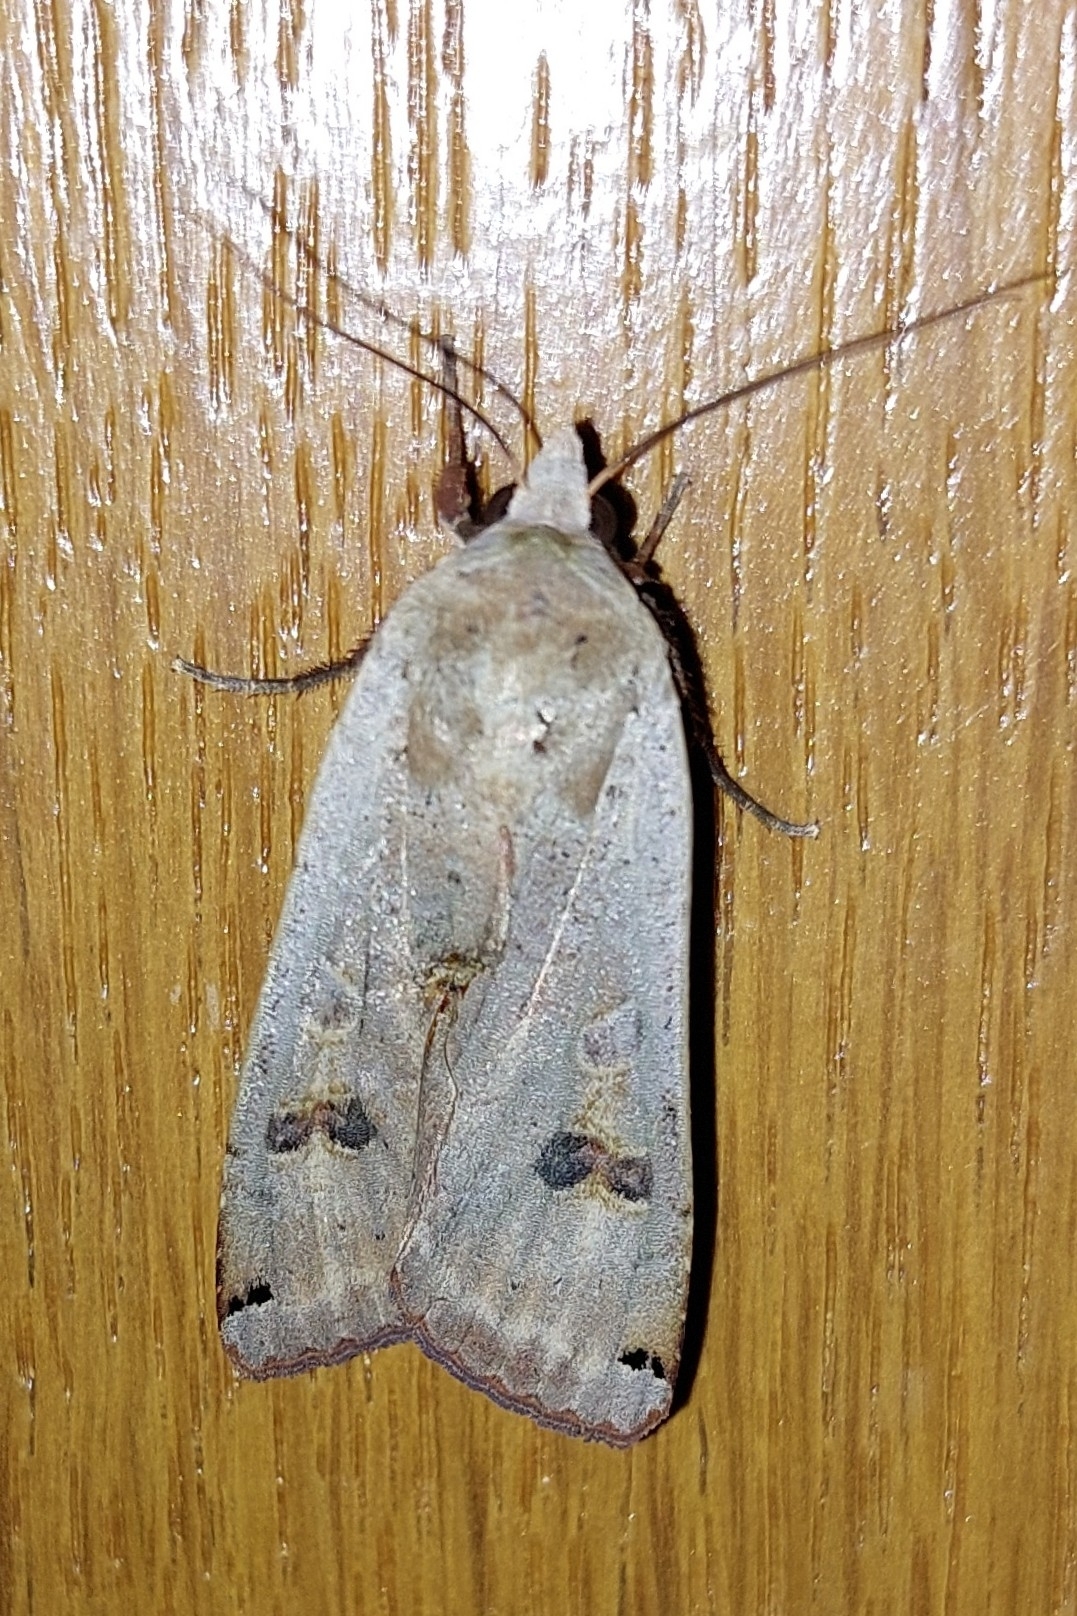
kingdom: Animalia
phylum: Arthropoda
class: Insecta
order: Lepidoptera
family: Noctuidae
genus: Noctua
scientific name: Noctua pronuba
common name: Large yellow underwing
